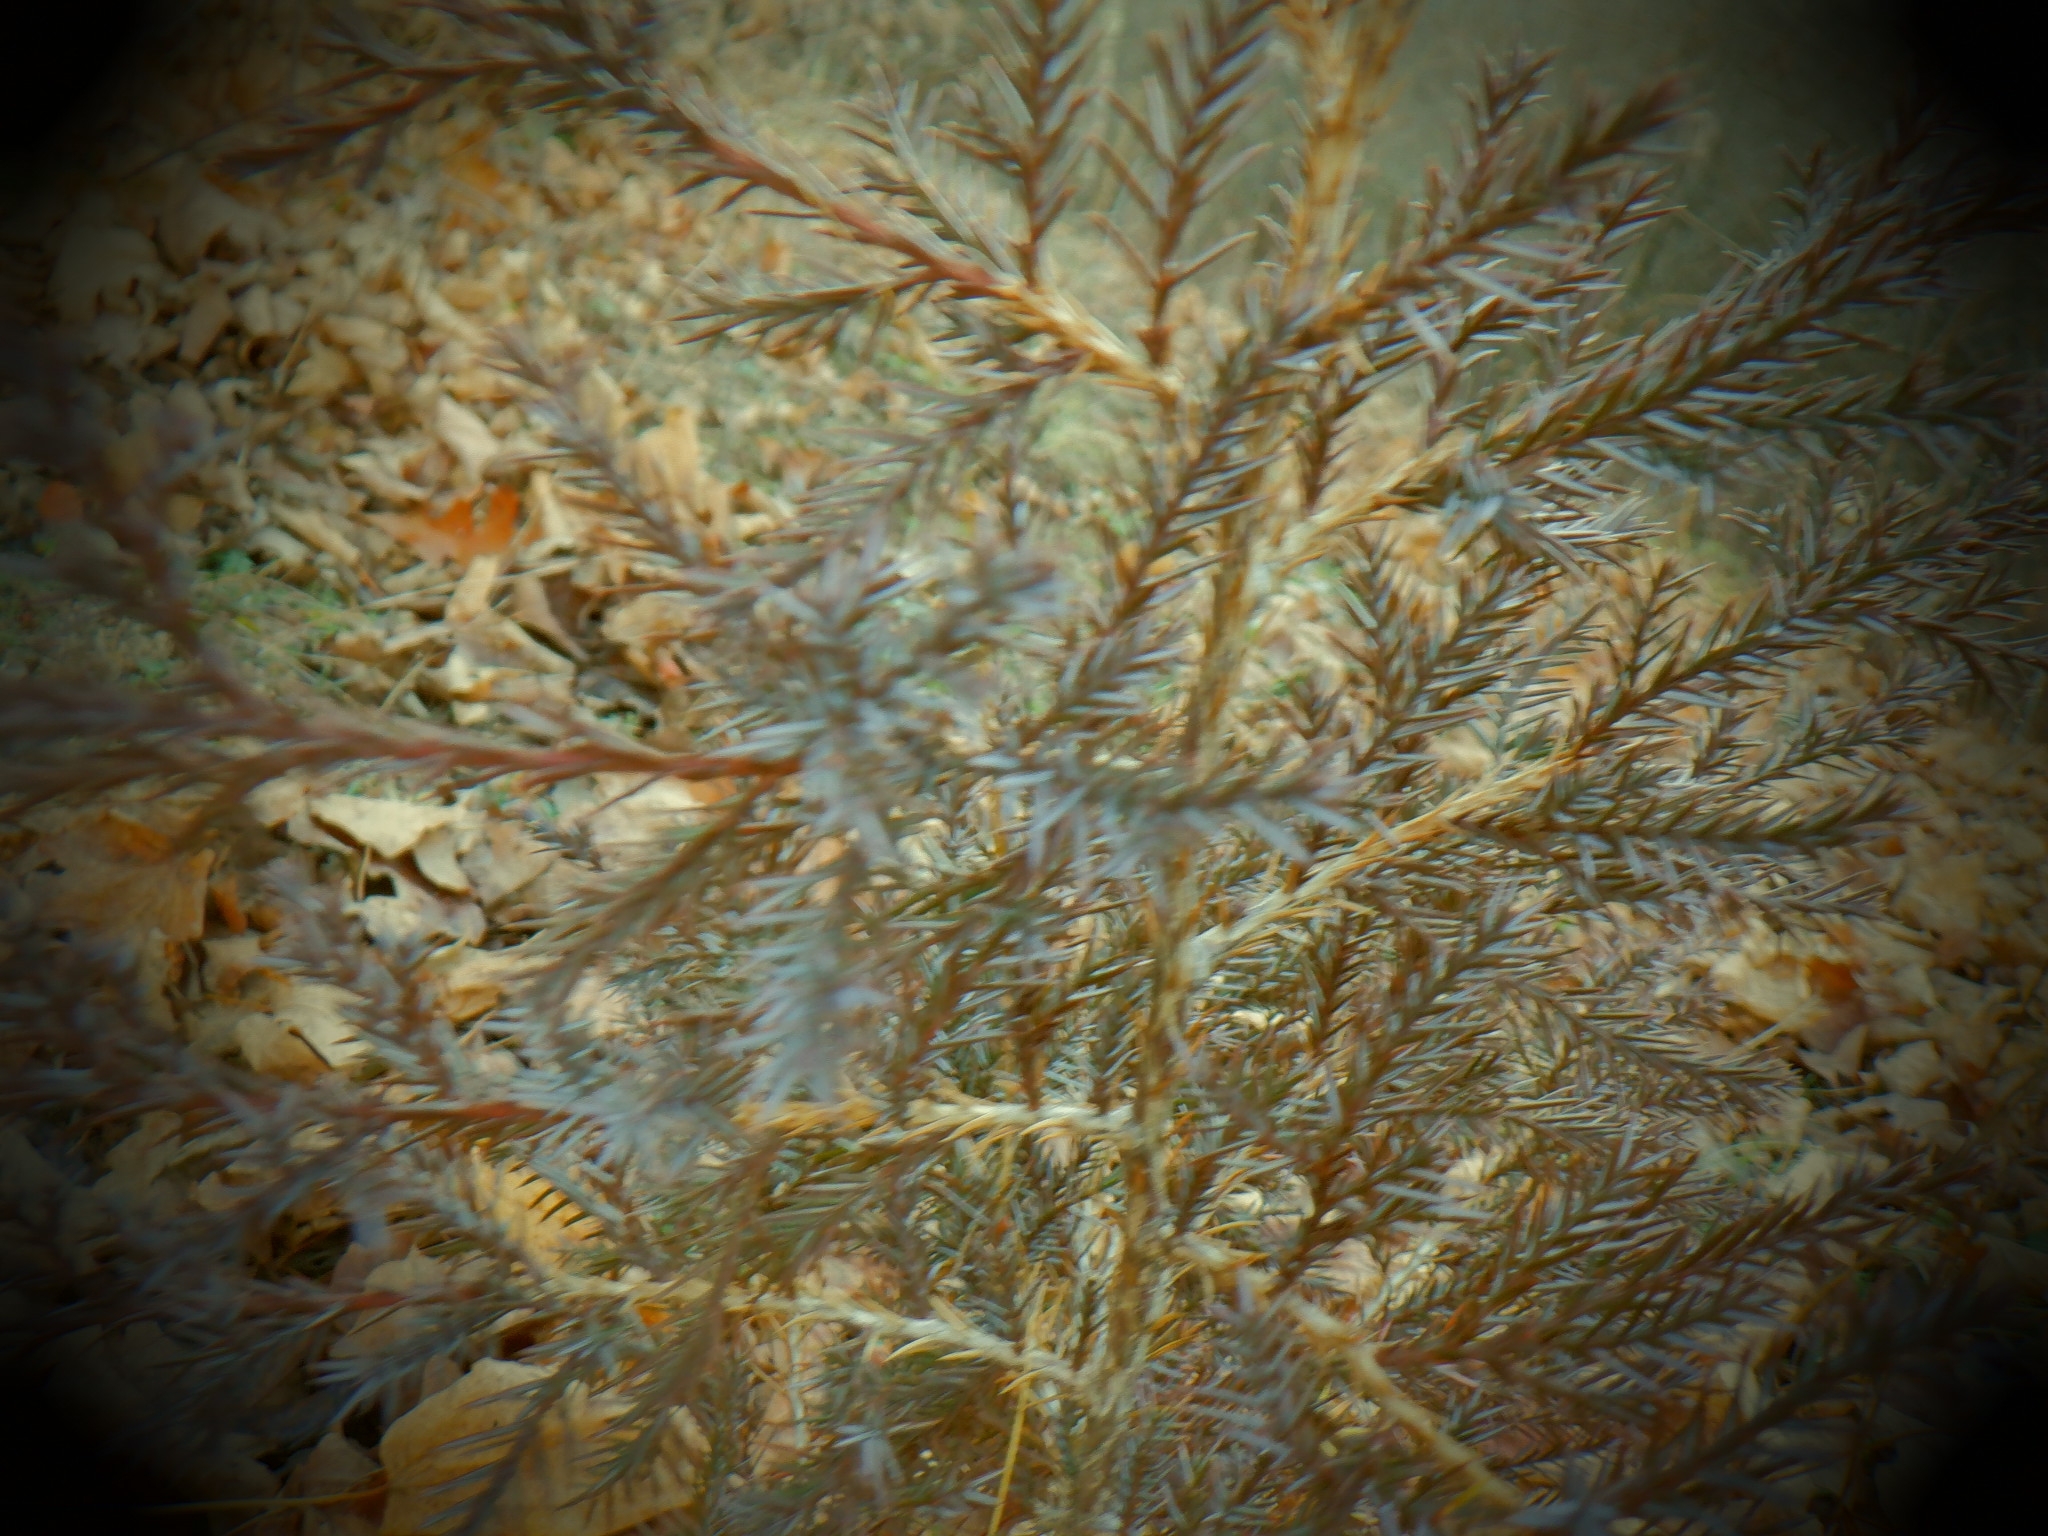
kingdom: Plantae
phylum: Tracheophyta
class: Pinopsida
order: Pinales
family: Cupressaceae
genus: Juniperus
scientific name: Juniperus virginiana
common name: Red juniper
